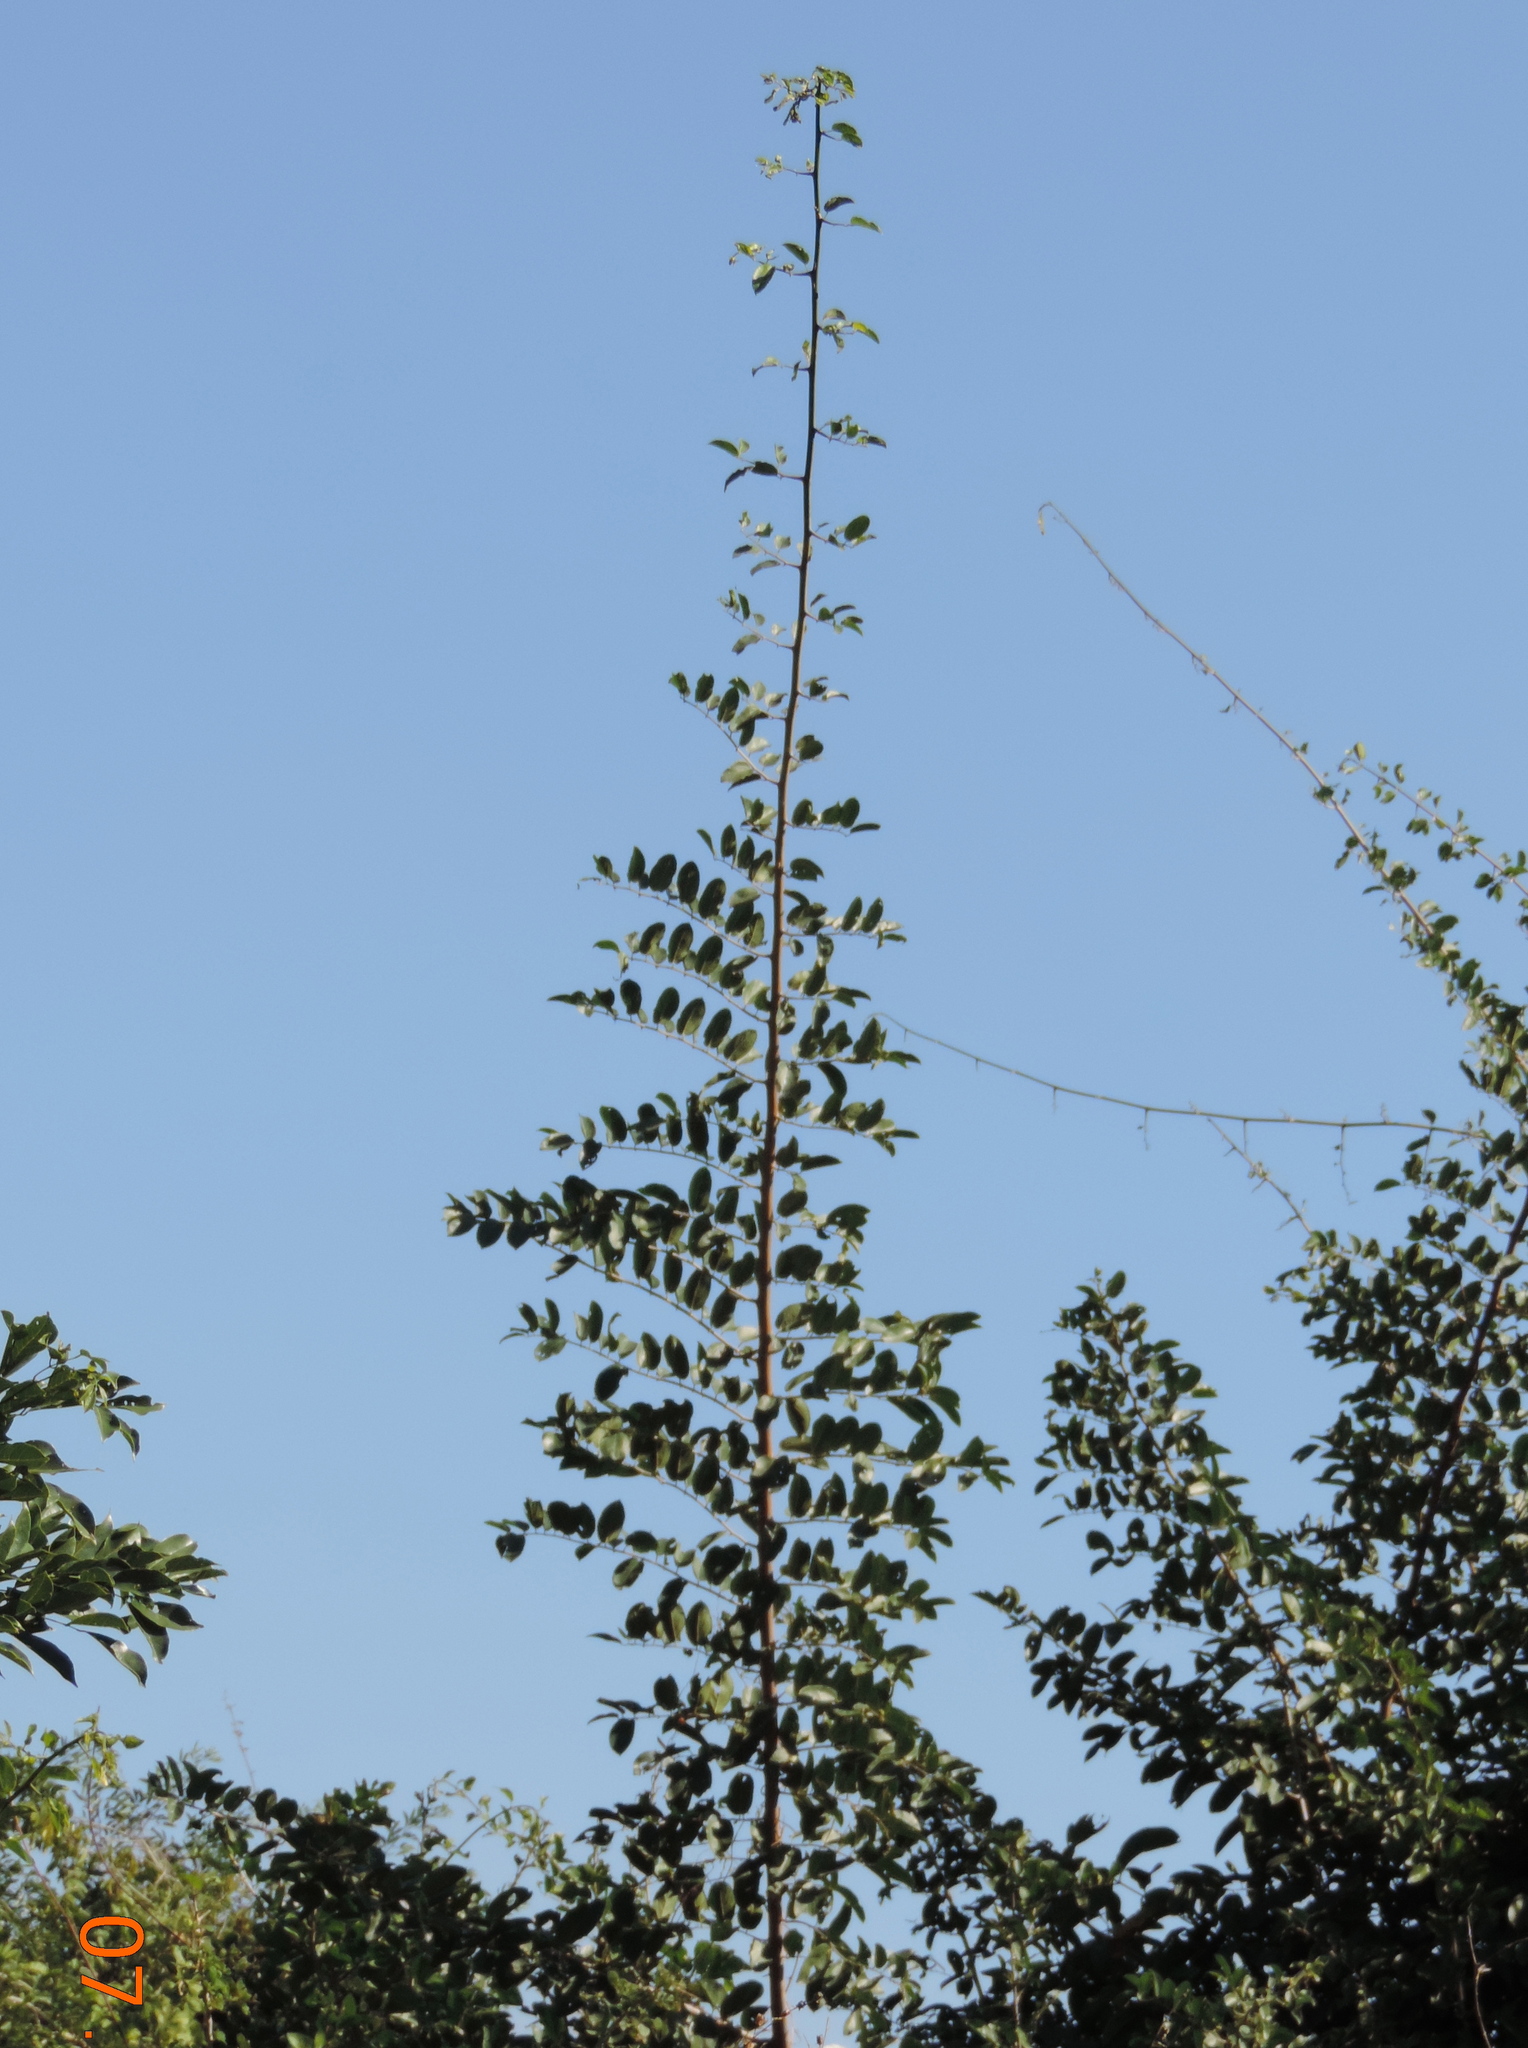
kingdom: Plantae
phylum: Tracheophyta
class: Magnoliopsida
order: Rosales
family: Cannabaceae
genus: Celtis
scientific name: Celtis iguanaea
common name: Iguana hackberry
